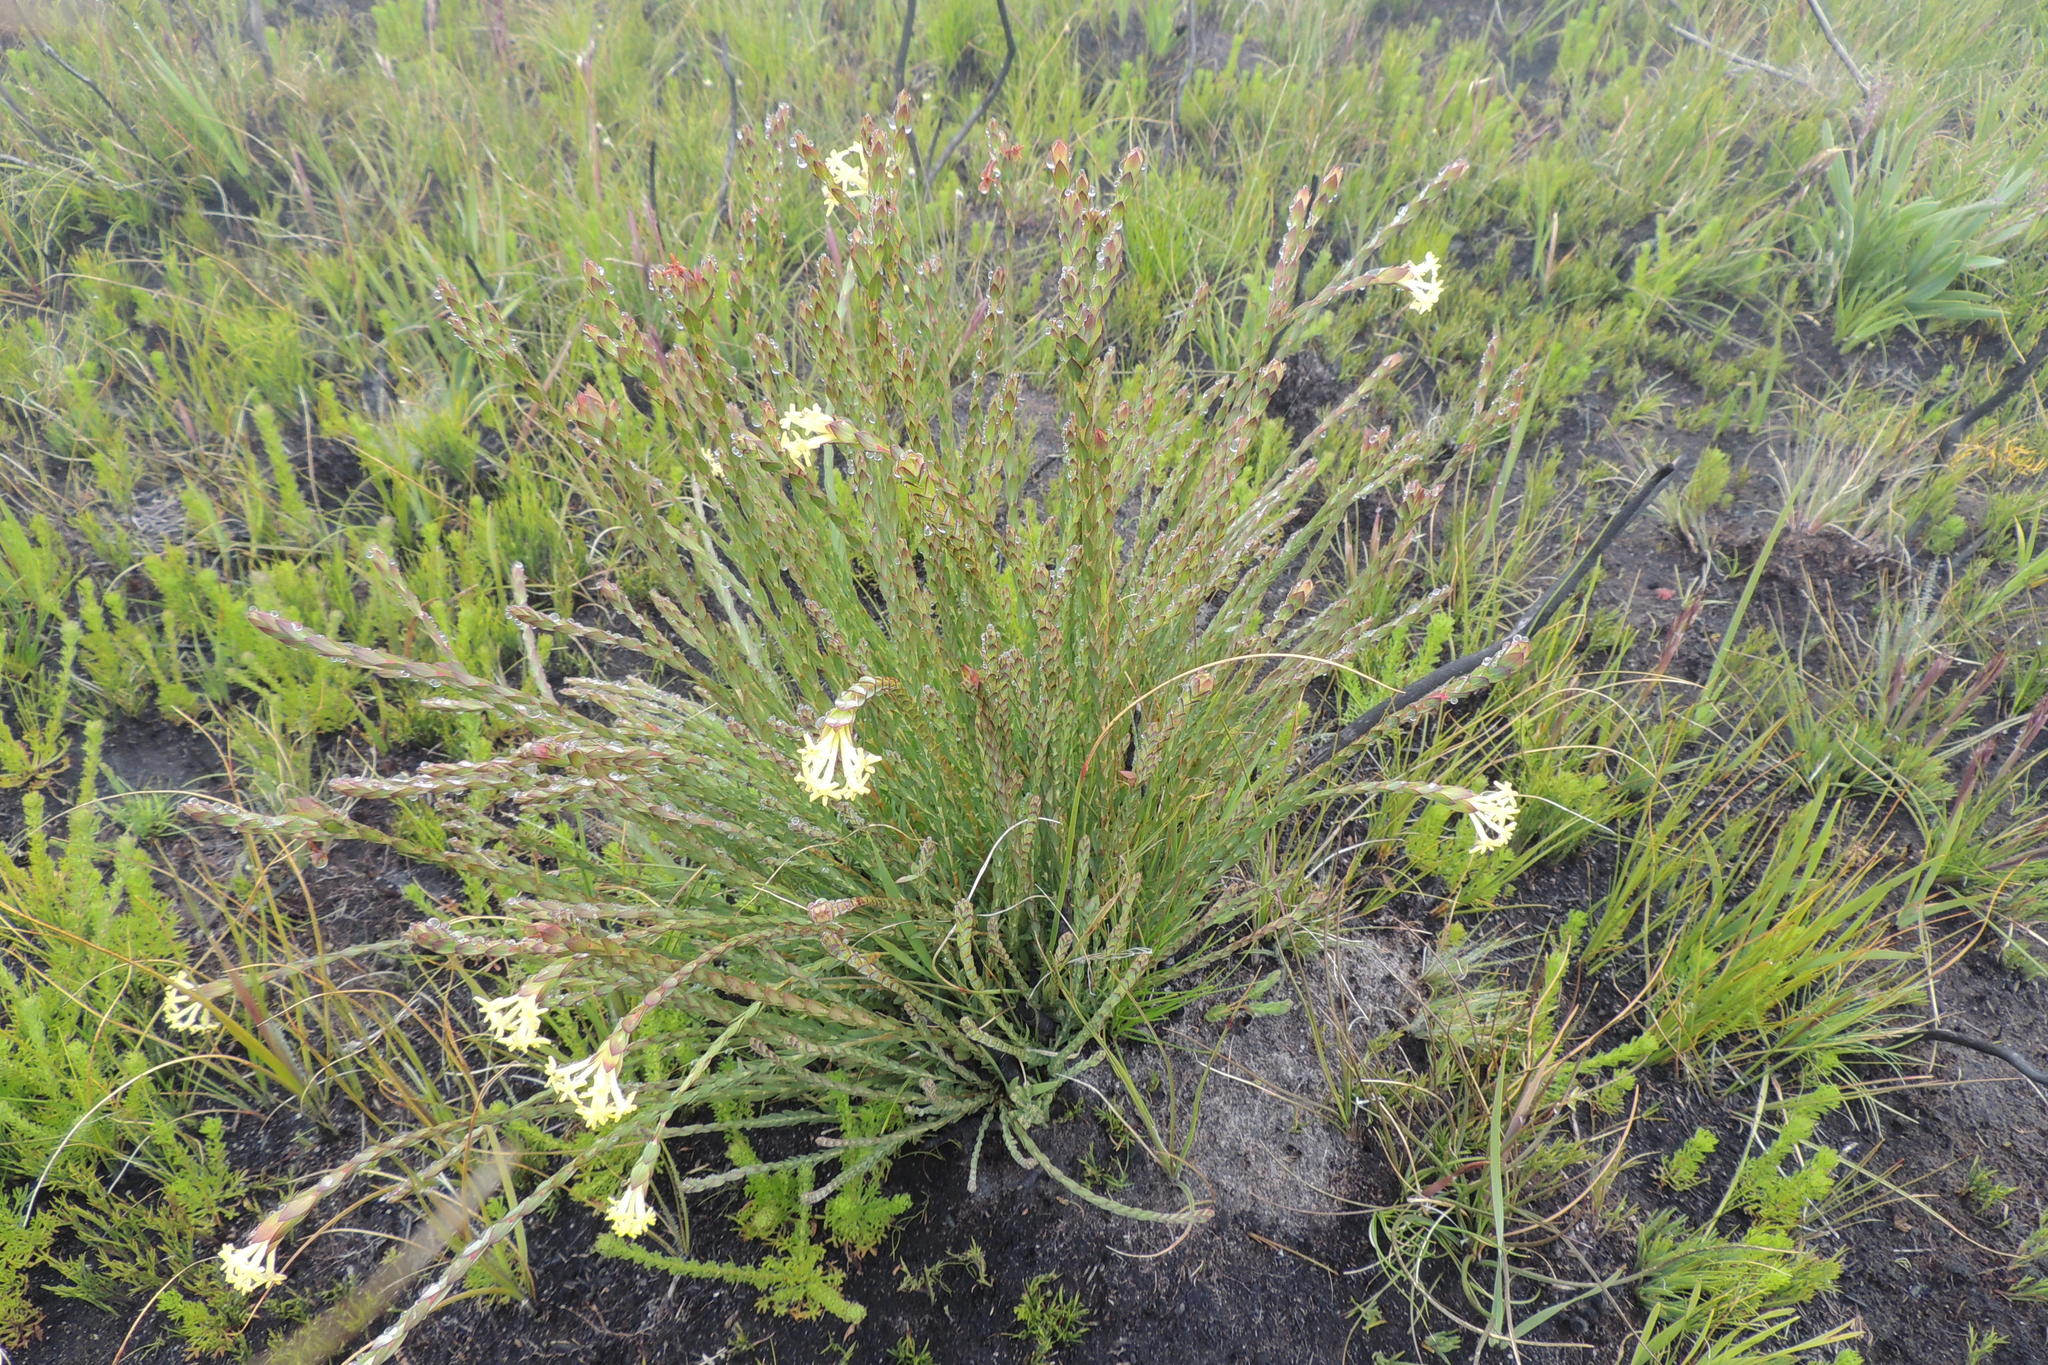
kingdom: Plantae
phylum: Tracheophyta
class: Magnoliopsida
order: Malvales
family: Thymelaeaceae
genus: Gnidia
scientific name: Gnidia oppositifolia
